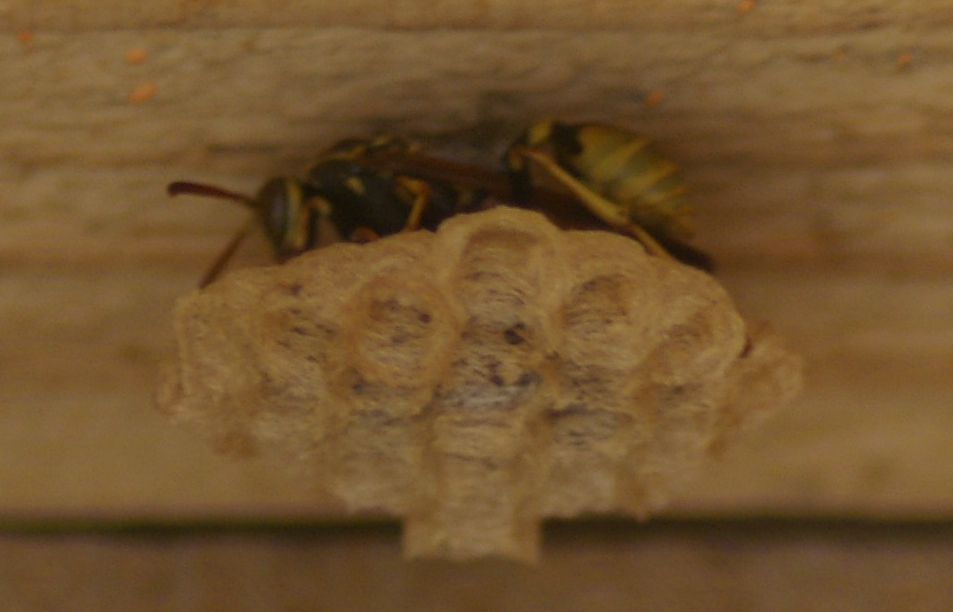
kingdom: Animalia
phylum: Arthropoda
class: Insecta
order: Hymenoptera
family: Vespidae
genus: Mischocyttarus
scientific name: Mischocyttarus flavitarsis
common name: Wasp
